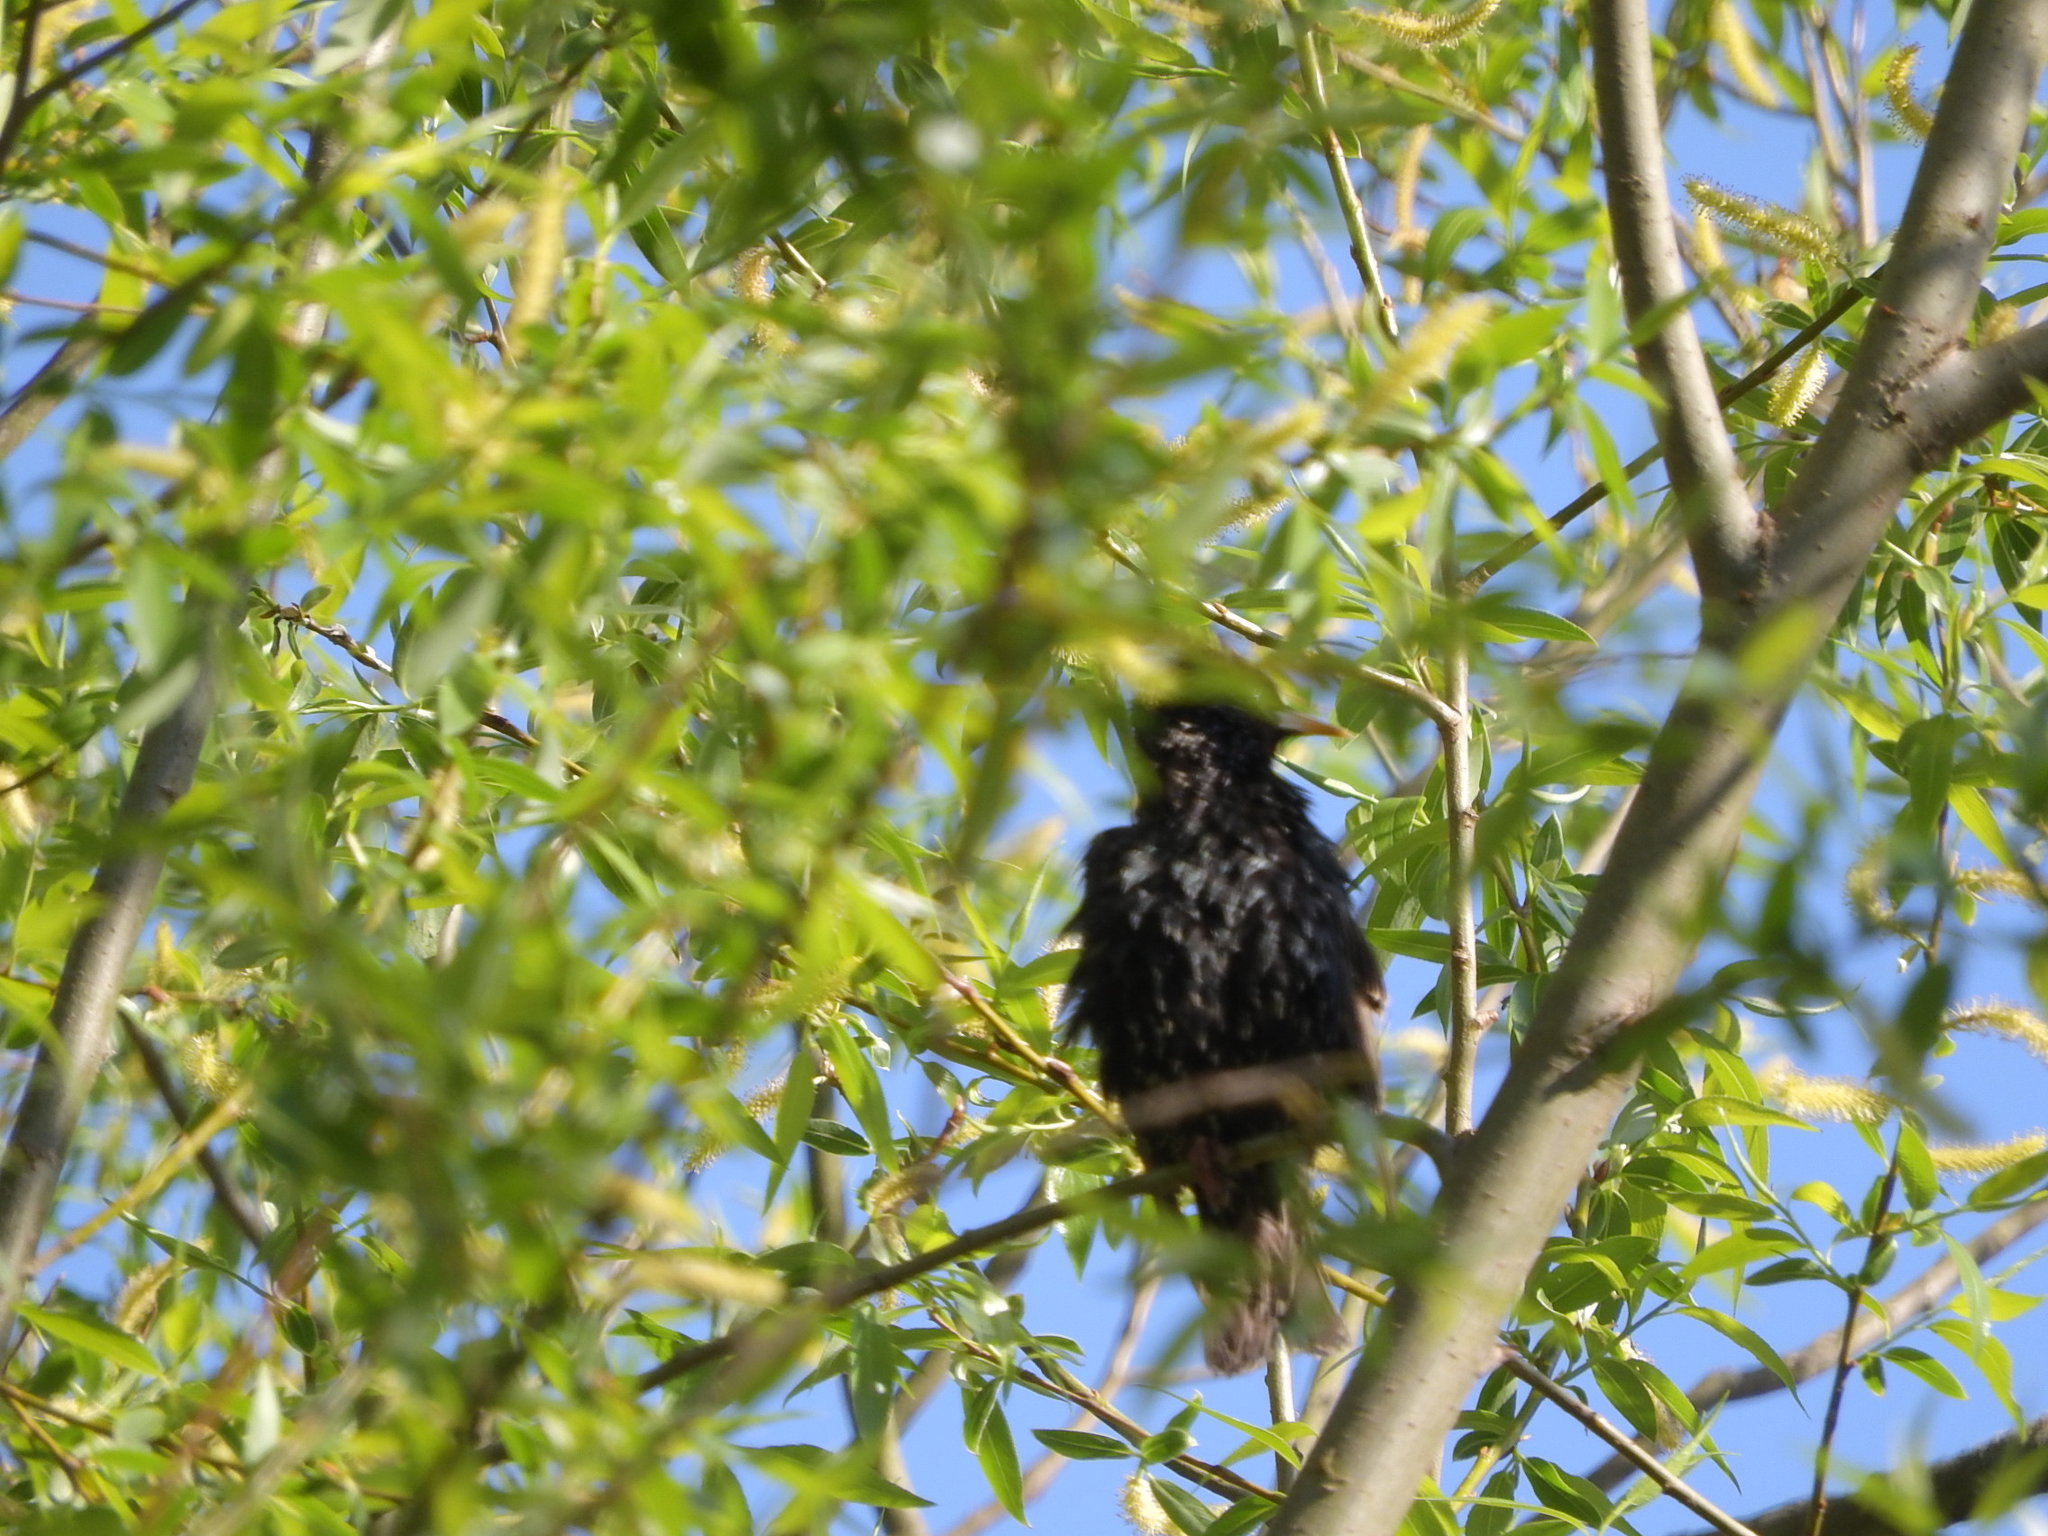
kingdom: Animalia
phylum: Chordata
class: Aves
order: Passeriformes
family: Sturnidae
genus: Sturnus
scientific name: Sturnus vulgaris
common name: Common starling
